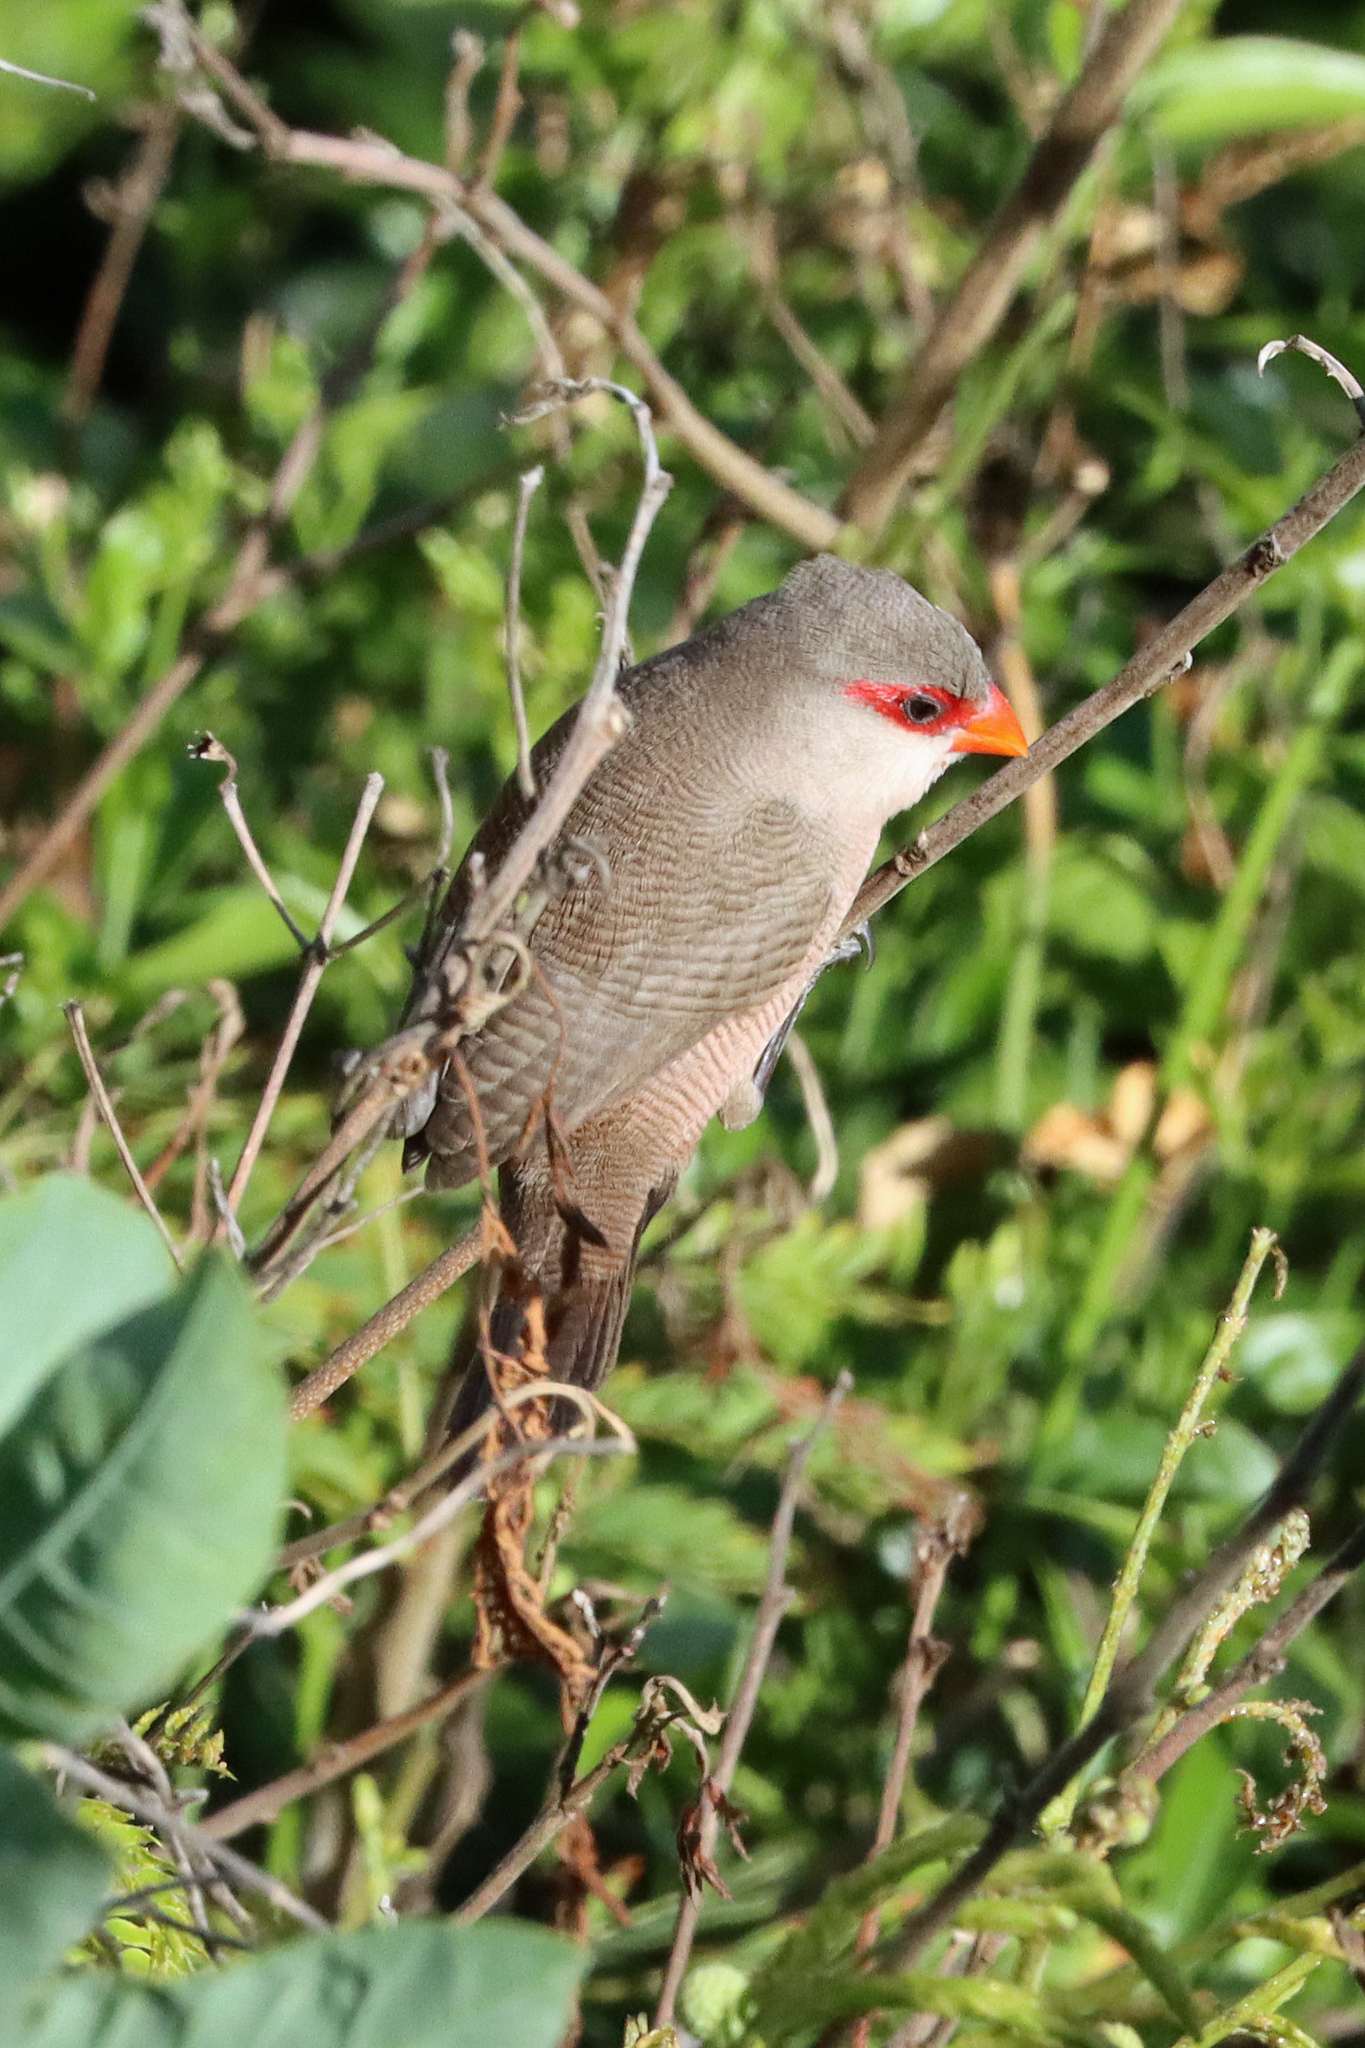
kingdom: Animalia
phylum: Chordata
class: Aves
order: Passeriformes
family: Estrildidae
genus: Estrilda
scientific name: Estrilda astrild
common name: Common waxbill
